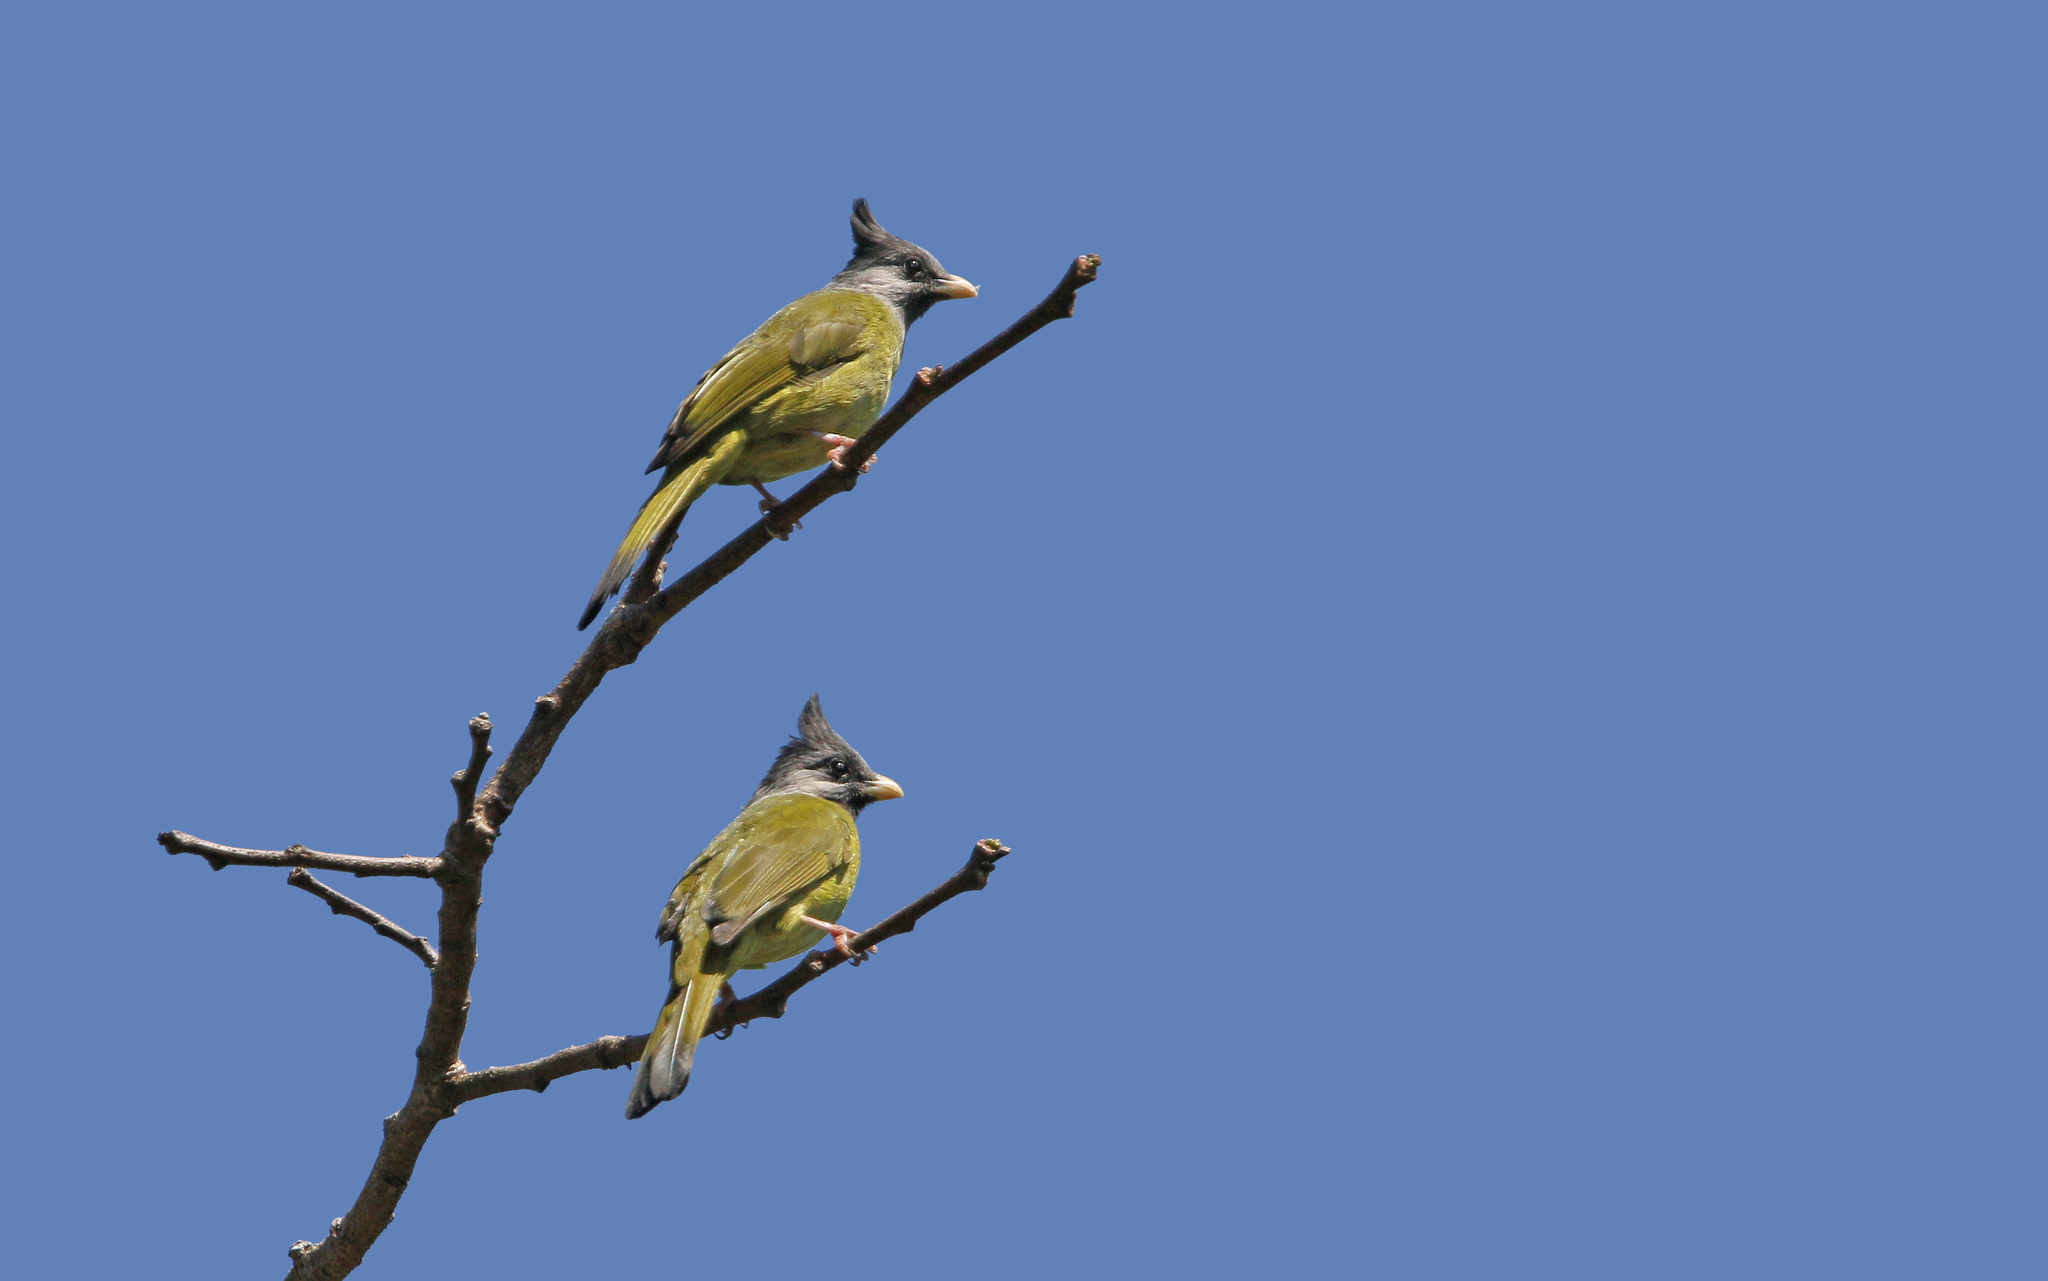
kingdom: Animalia
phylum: Chordata
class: Aves
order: Passeriformes
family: Pycnonotidae
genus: Spizixos
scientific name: Spizixos canifrons
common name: Crested finchbill
